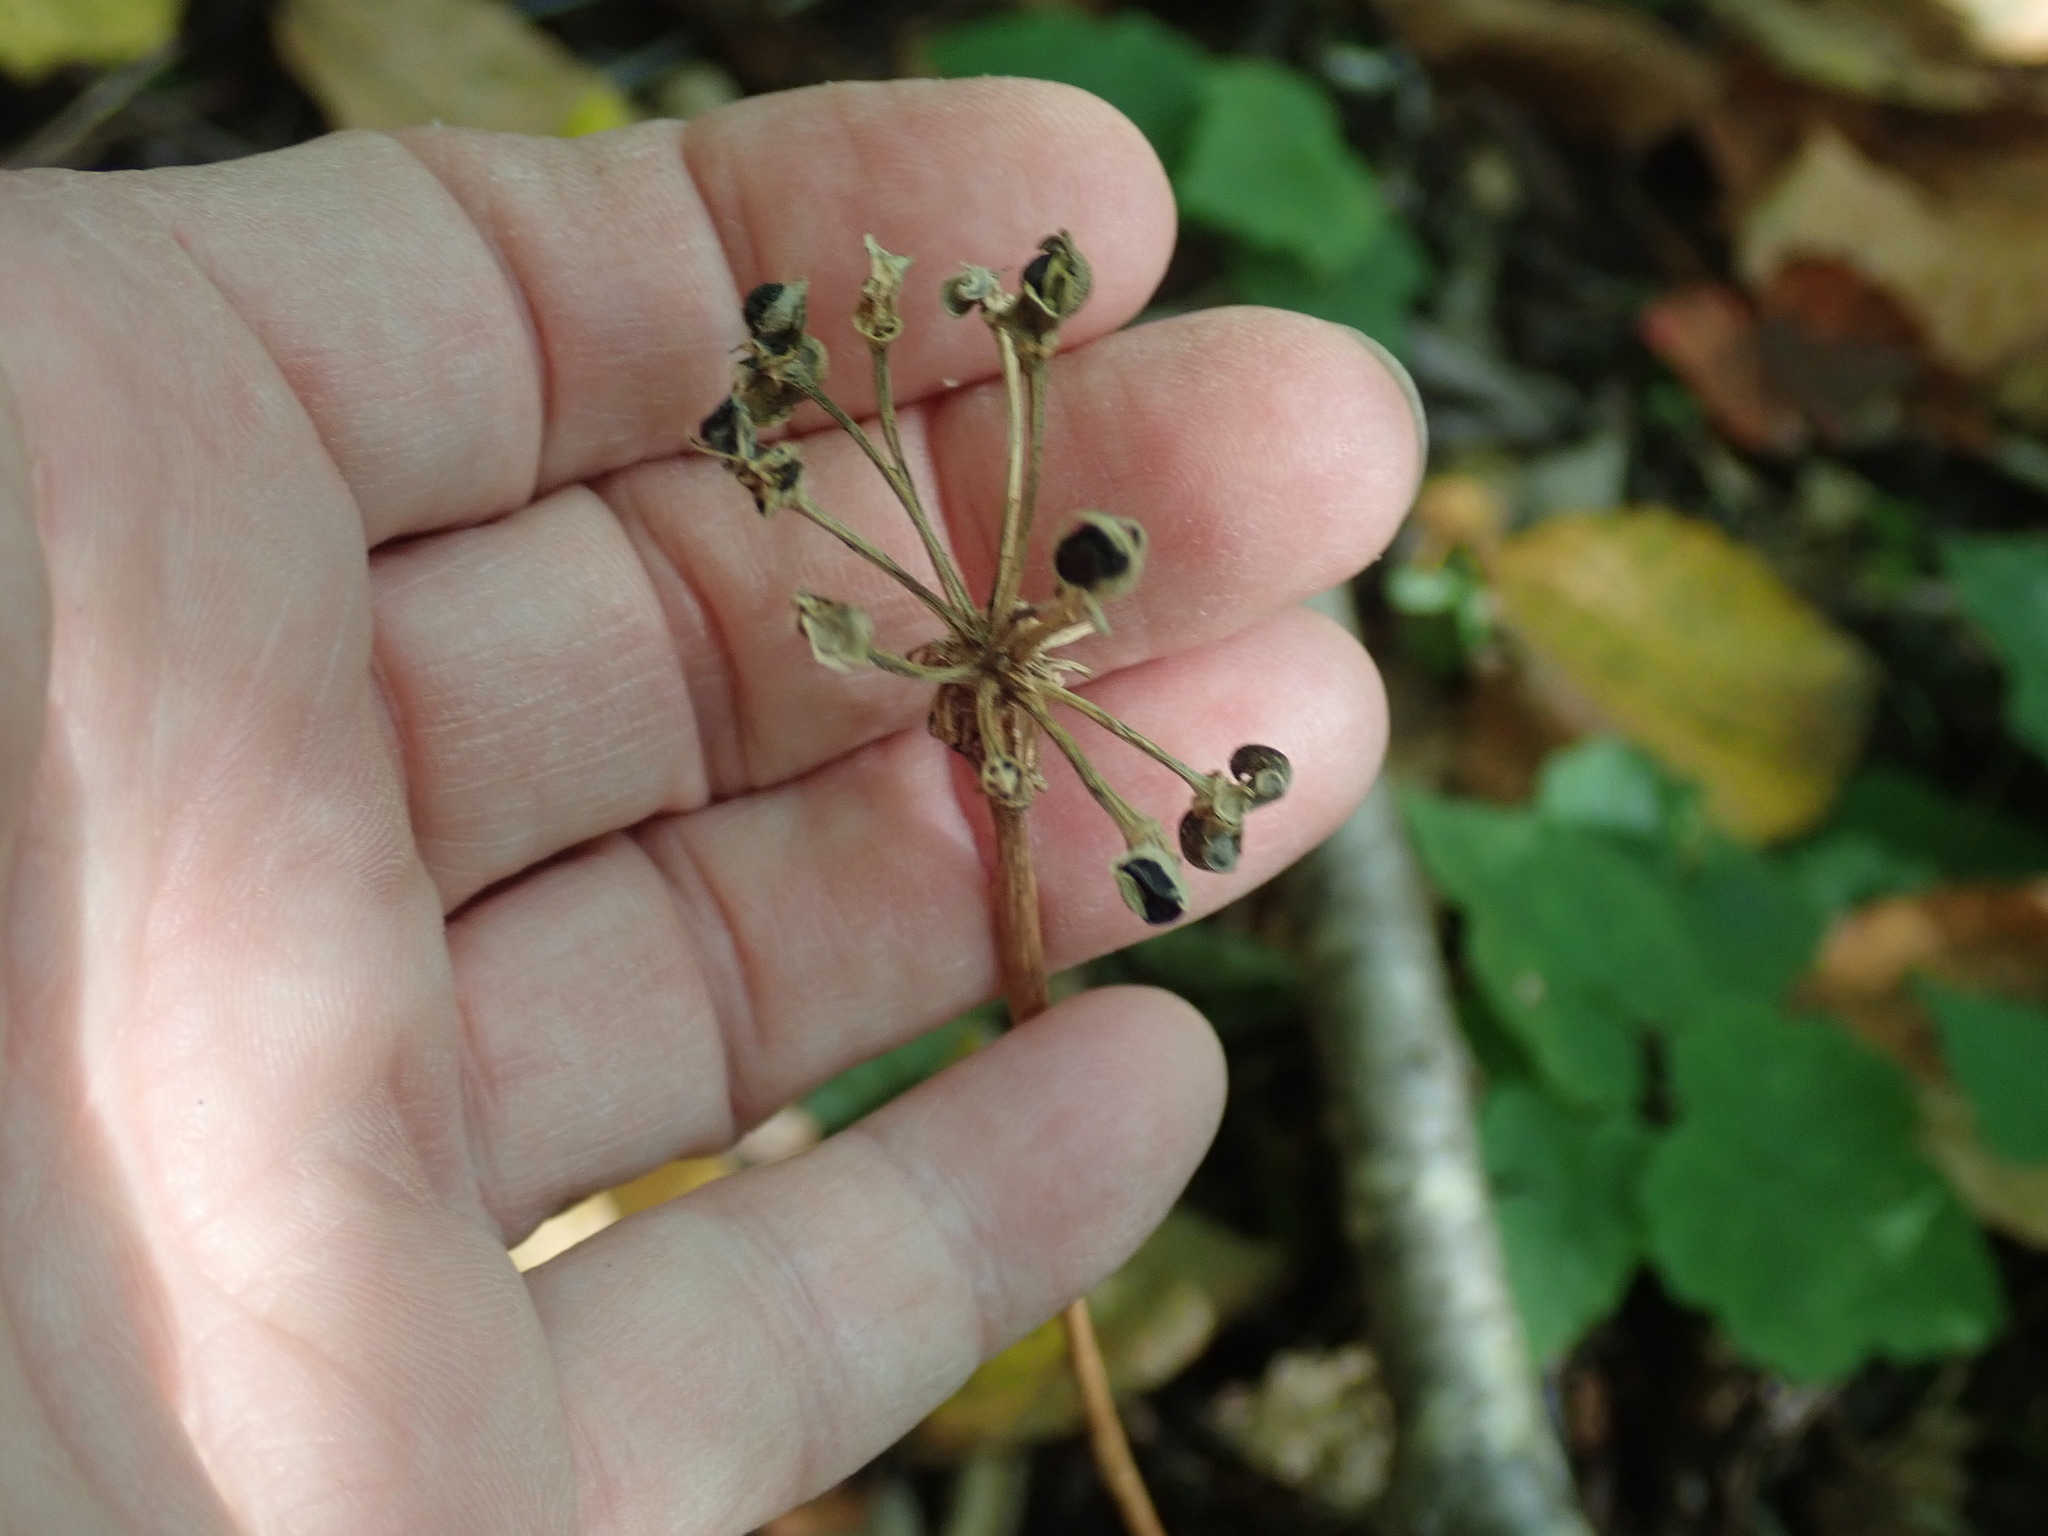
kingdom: Plantae
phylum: Tracheophyta
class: Liliopsida
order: Asparagales
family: Amaryllidaceae
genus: Allium
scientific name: Allium tricoccum
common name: Ramp
